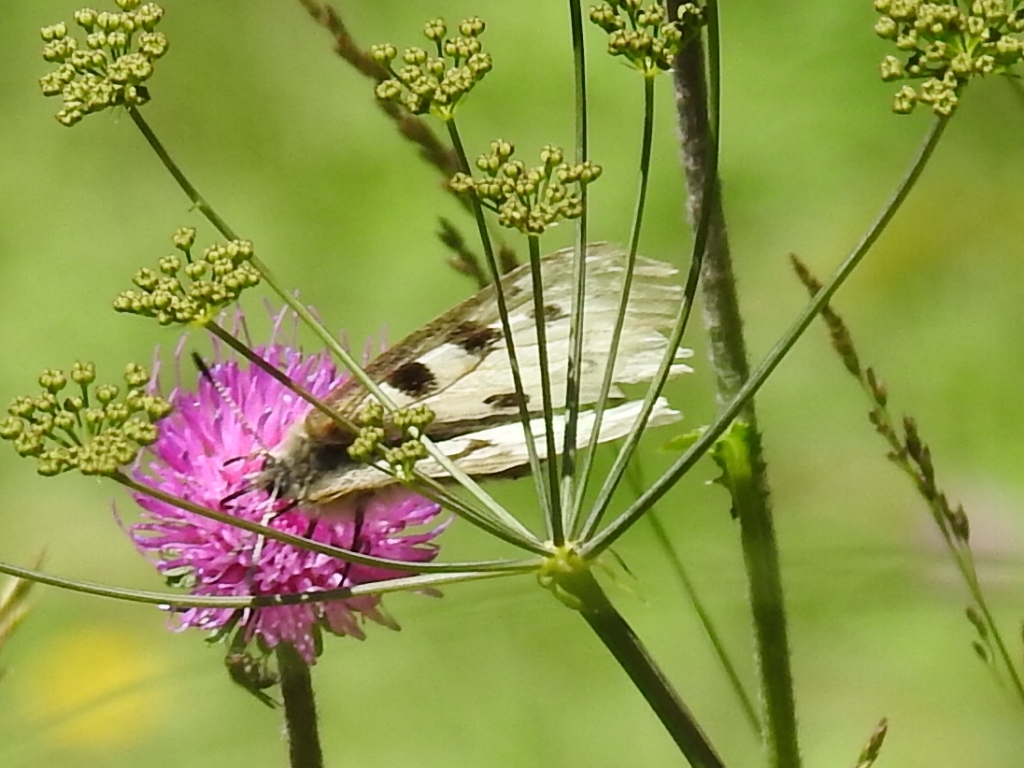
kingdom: Animalia
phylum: Arthropoda
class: Insecta
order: Lepidoptera
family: Papilionidae
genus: Parnassius
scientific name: Parnassius apollo
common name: Apollo
